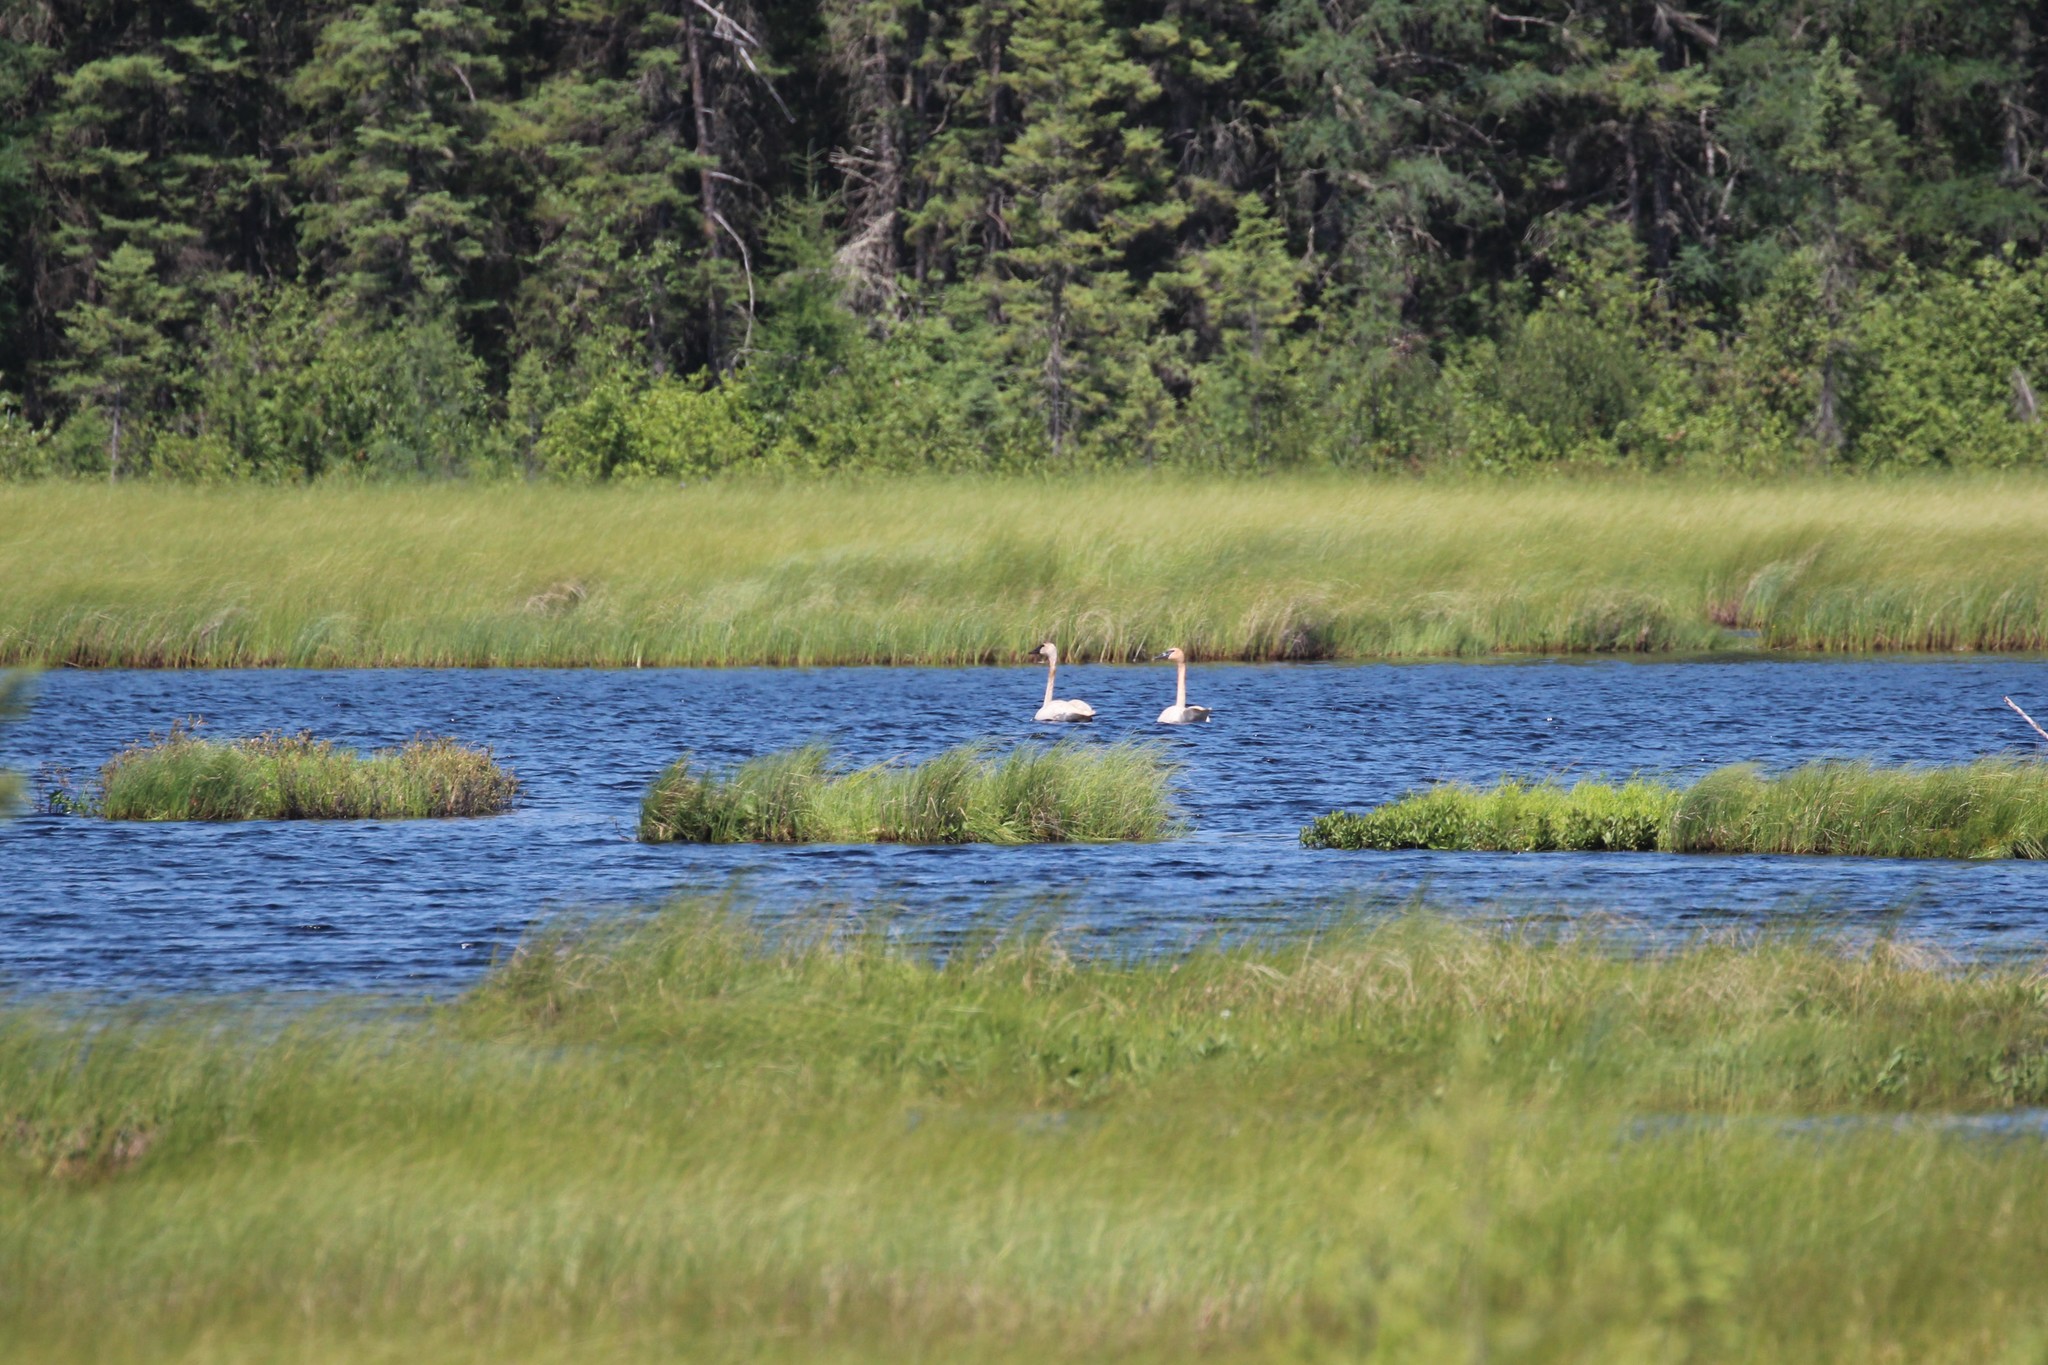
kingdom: Animalia
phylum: Chordata
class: Aves
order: Anseriformes
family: Anatidae
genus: Cygnus
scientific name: Cygnus buccinator
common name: Trumpeter swan
